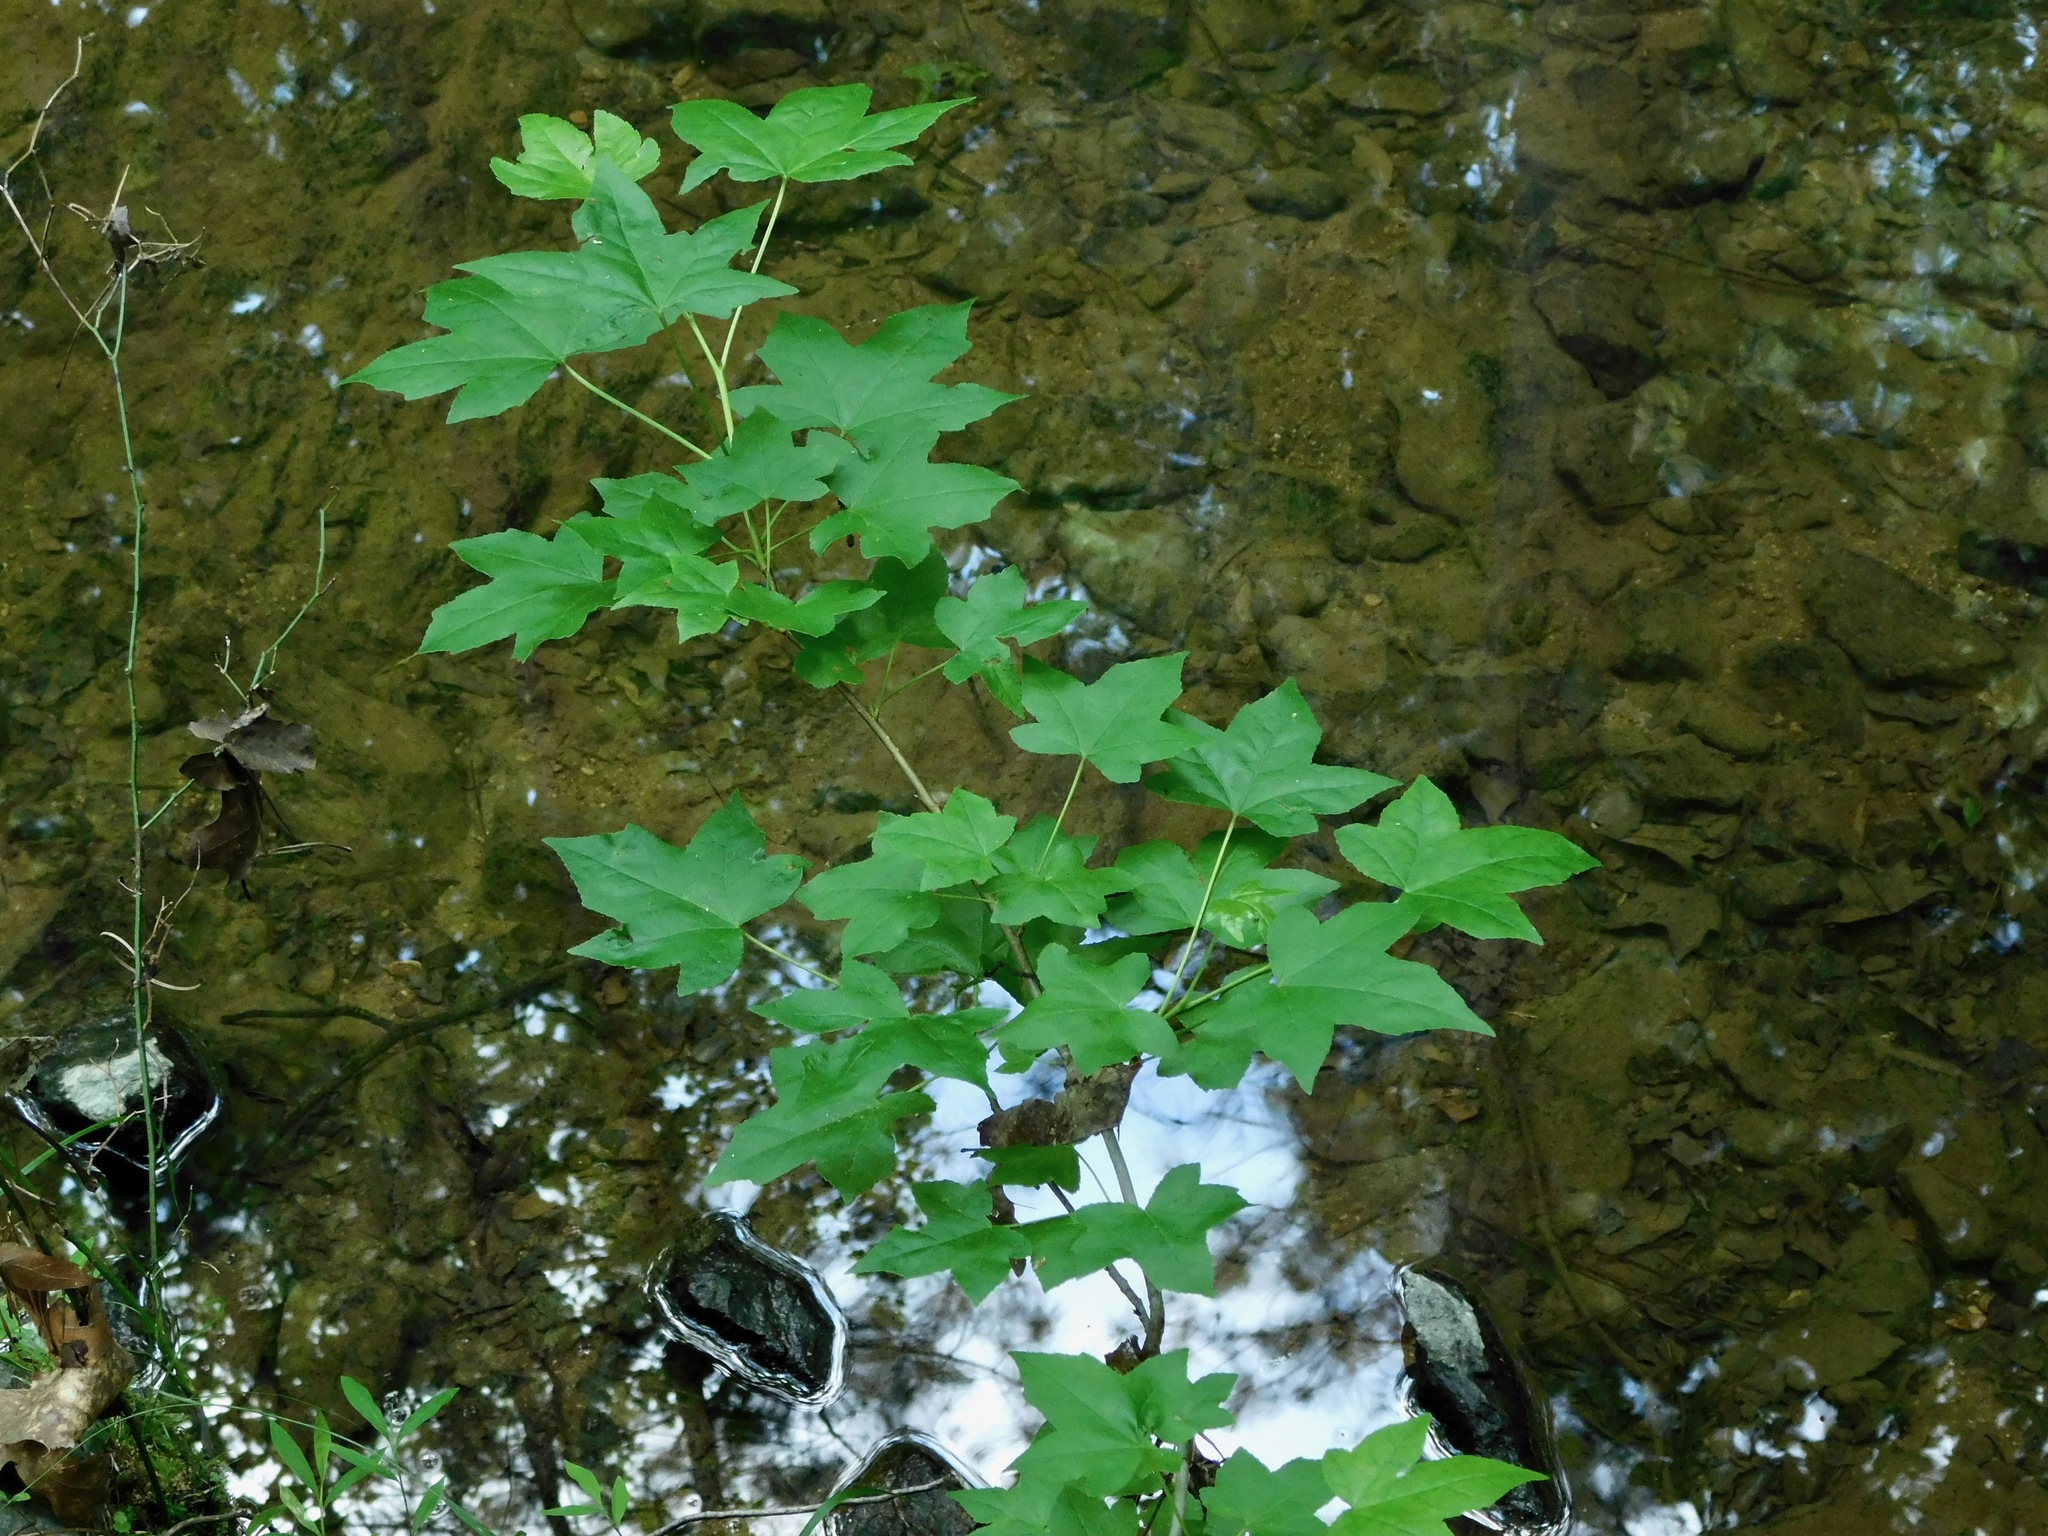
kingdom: Plantae
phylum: Tracheophyta
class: Magnoliopsida
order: Saxifragales
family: Altingiaceae
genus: Liquidambar
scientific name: Liquidambar styraciflua
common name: Sweet gum
